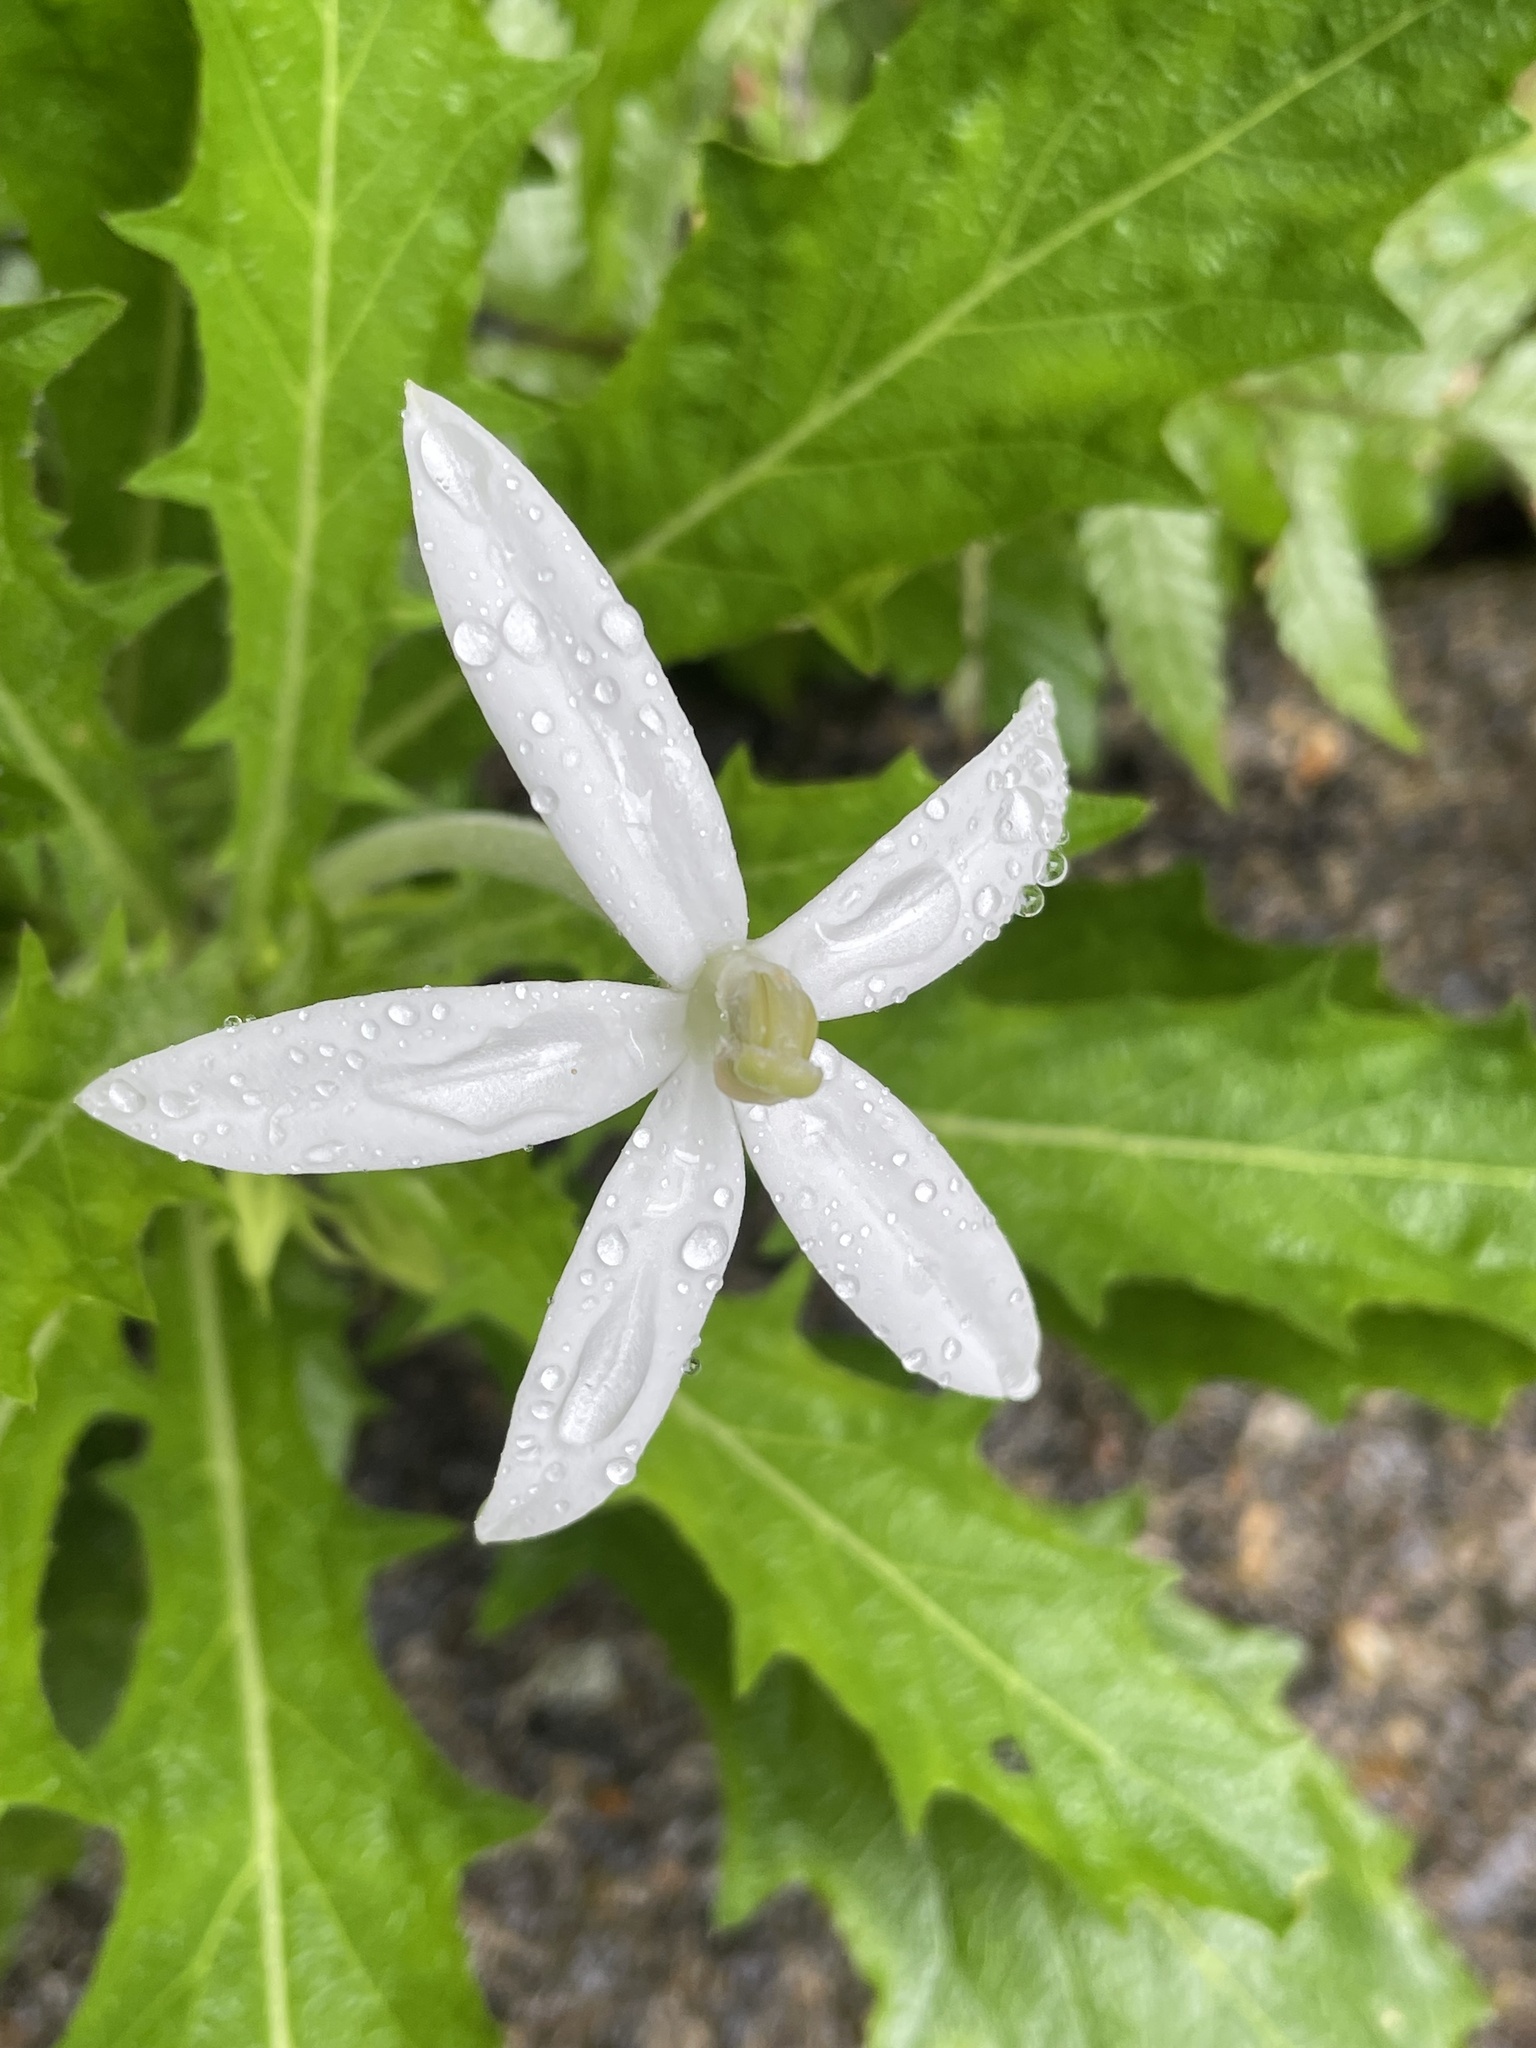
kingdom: Plantae
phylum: Tracheophyta
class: Magnoliopsida
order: Asterales
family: Campanulaceae
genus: Hippobroma
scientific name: Hippobroma longiflora
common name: Madamfate
